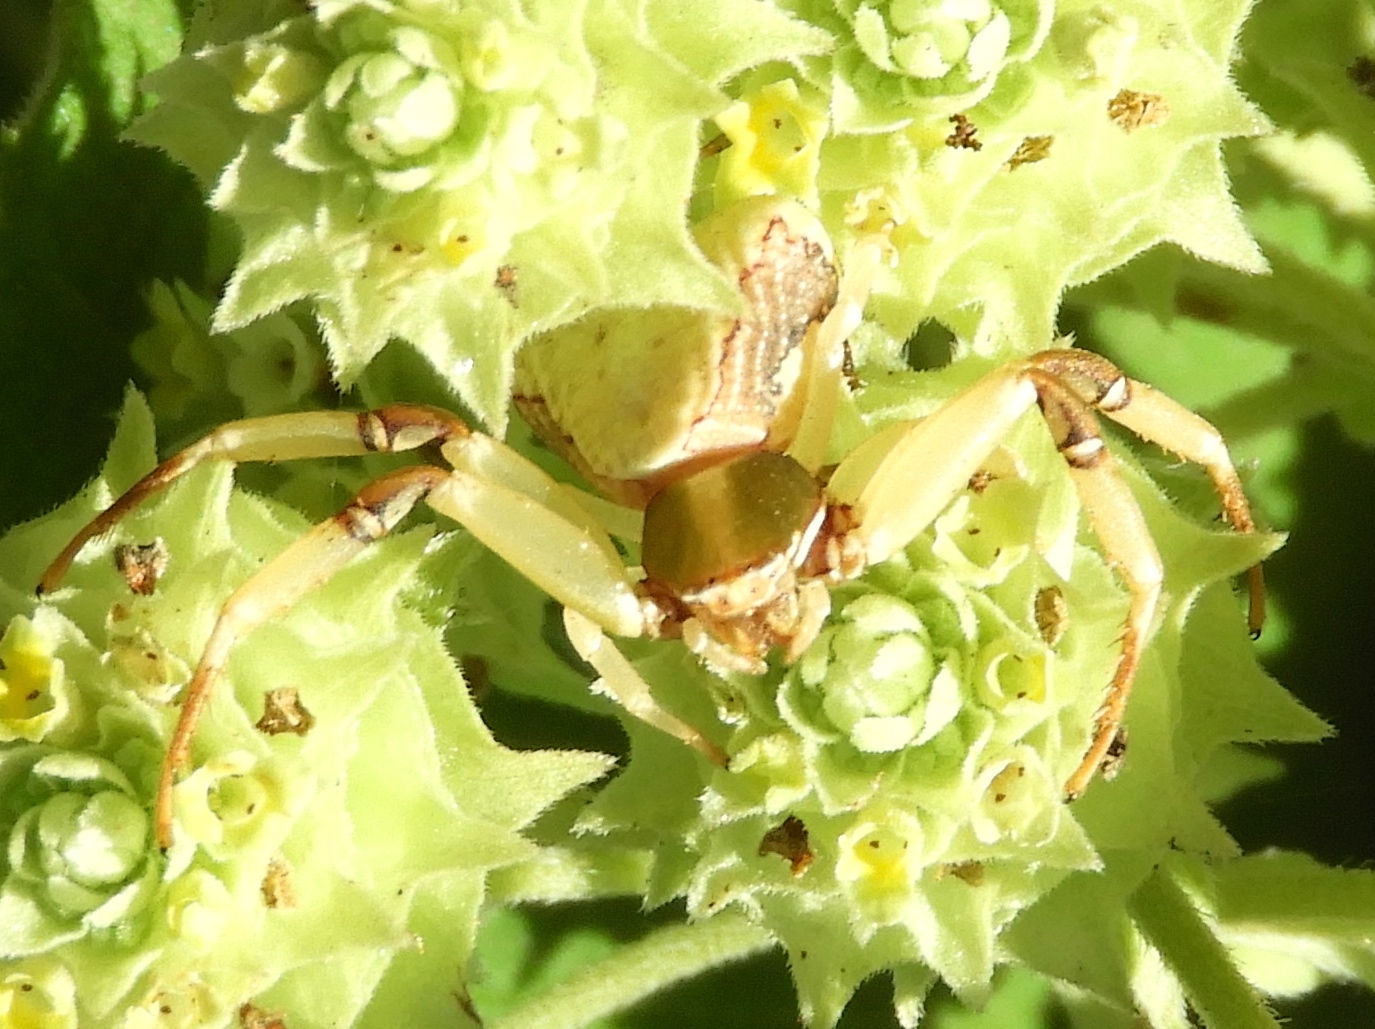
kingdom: Animalia
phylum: Arthropoda
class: Arachnida
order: Araneae
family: Thomisidae
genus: Misumenoides
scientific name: Misumenoides
